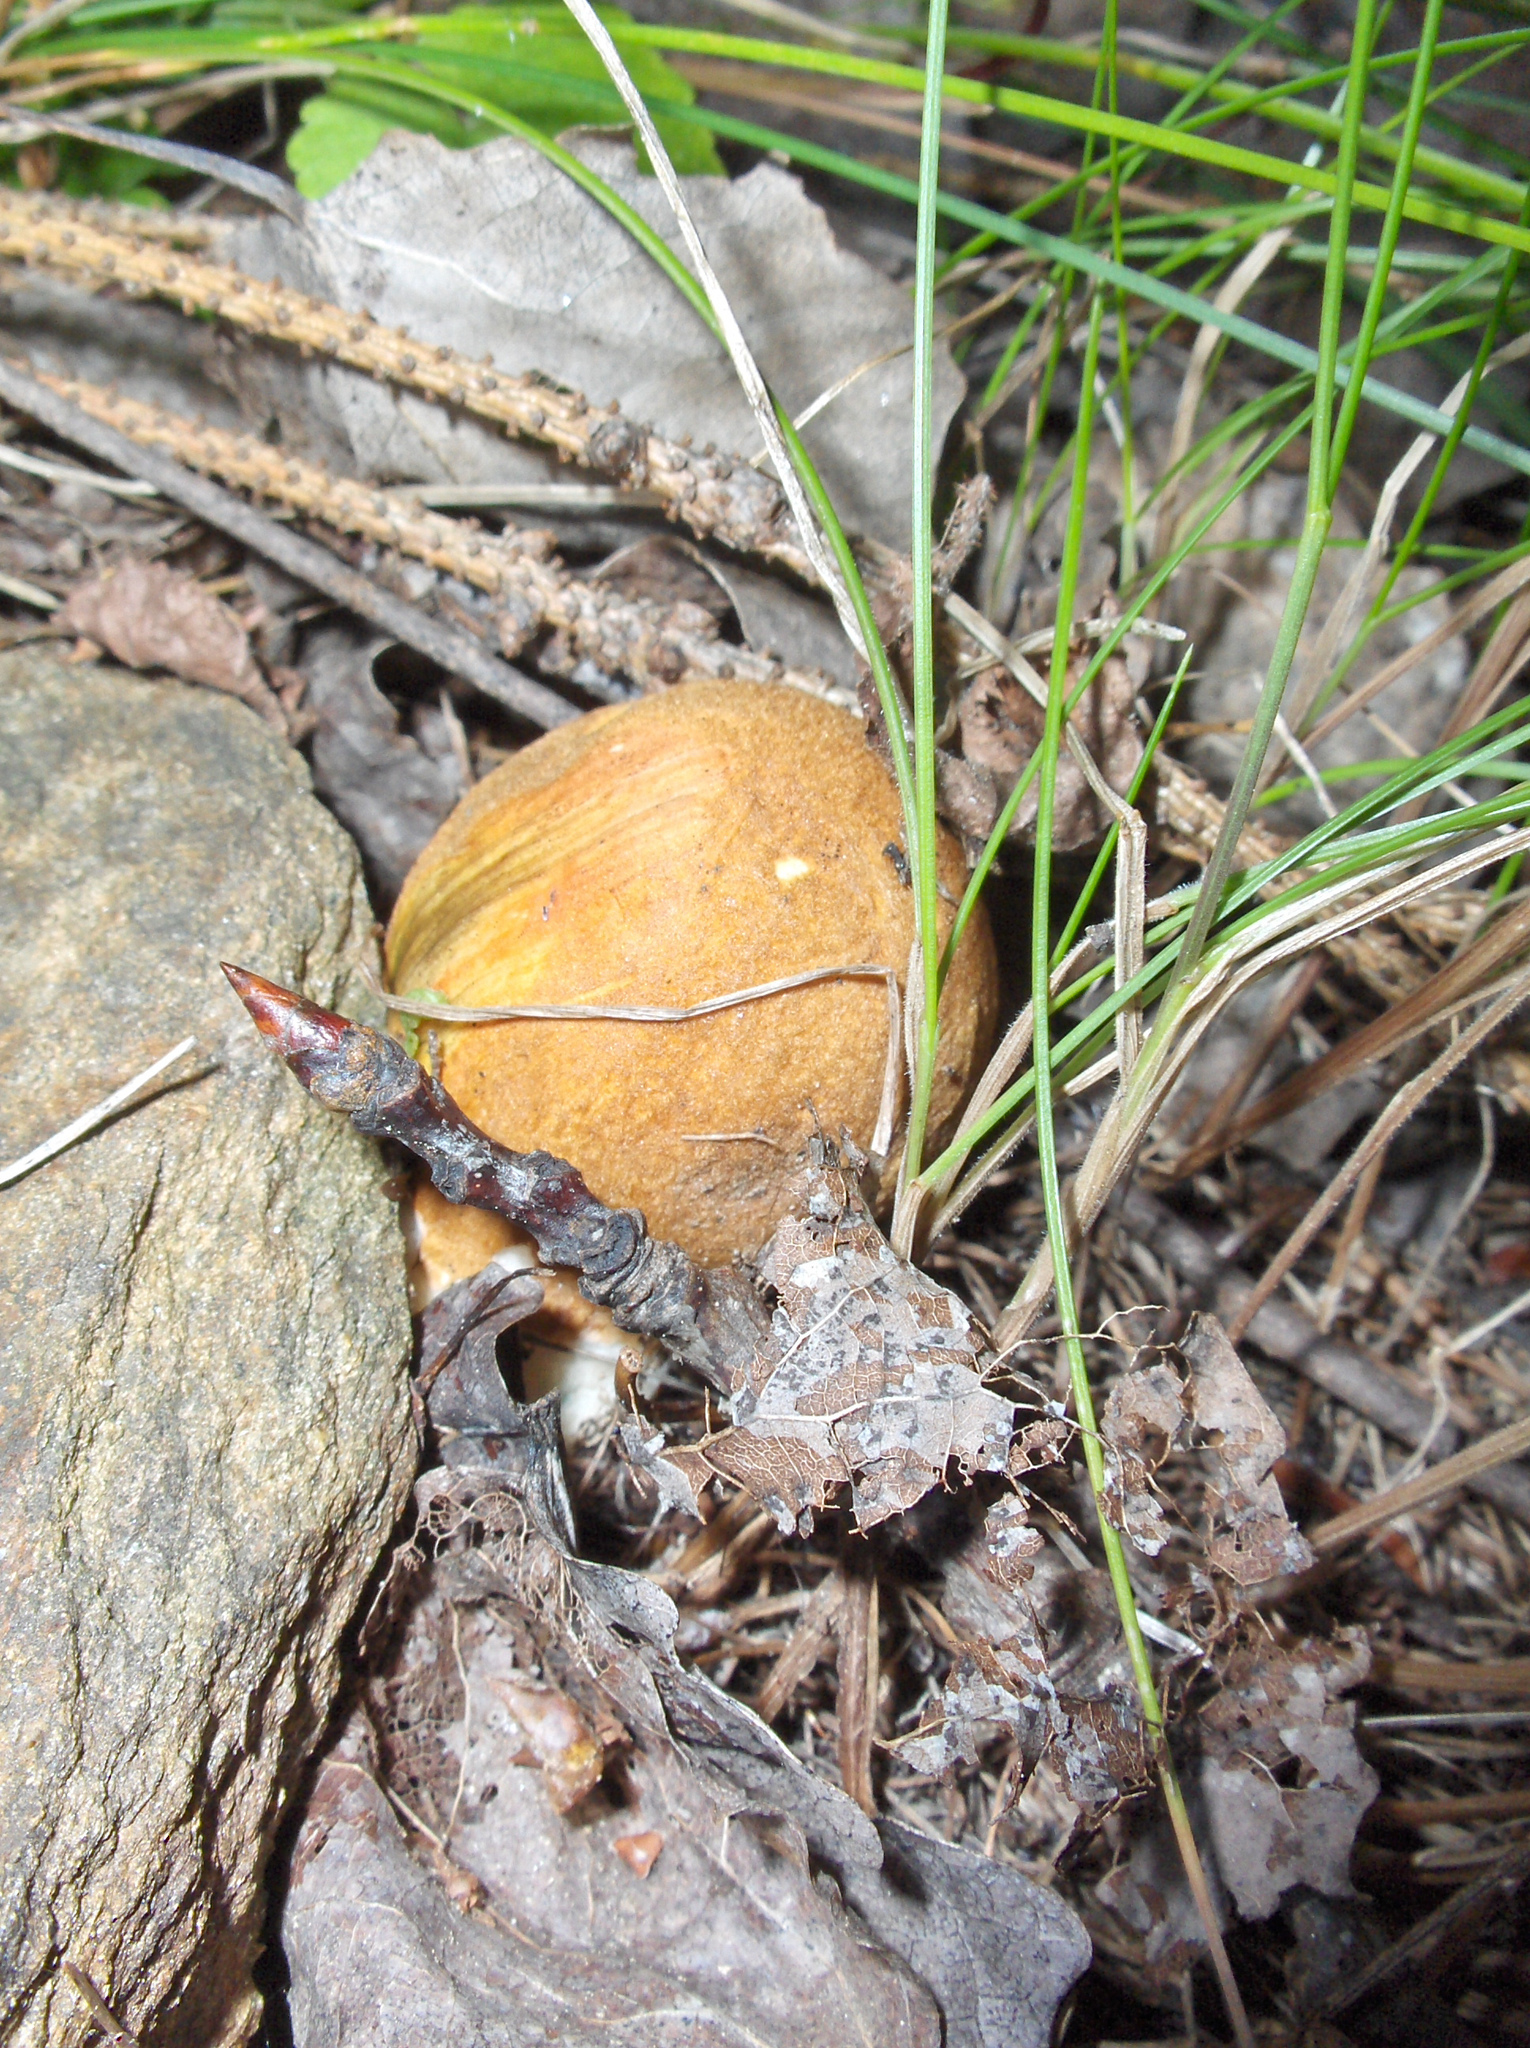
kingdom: Fungi
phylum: Basidiomycota
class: Agaricomycetes
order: Boletales
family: Boletaceae
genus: Leccinum
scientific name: Leccinum albostipitatum
